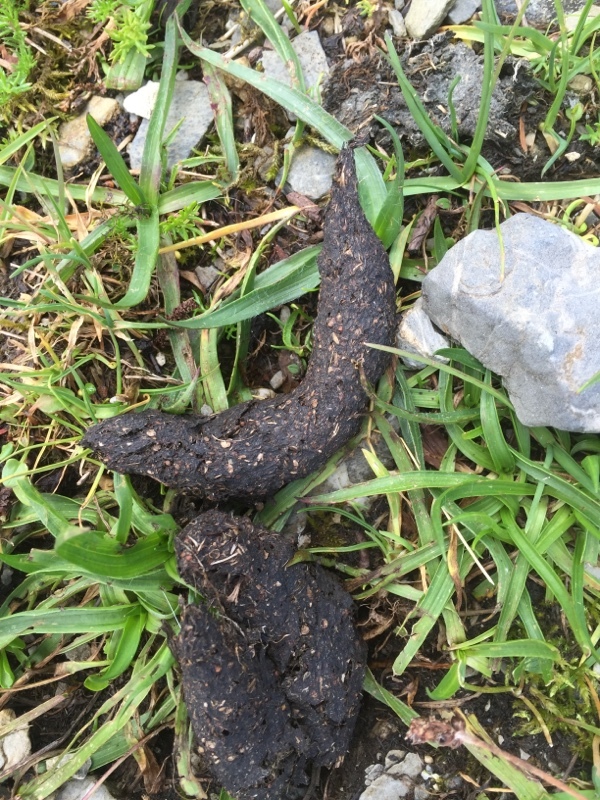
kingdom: Animalia
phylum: Chordata
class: Mammalia
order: Carnivora
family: Canidae
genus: Vulpes
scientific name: Vulpes vulpes
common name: Red fox
